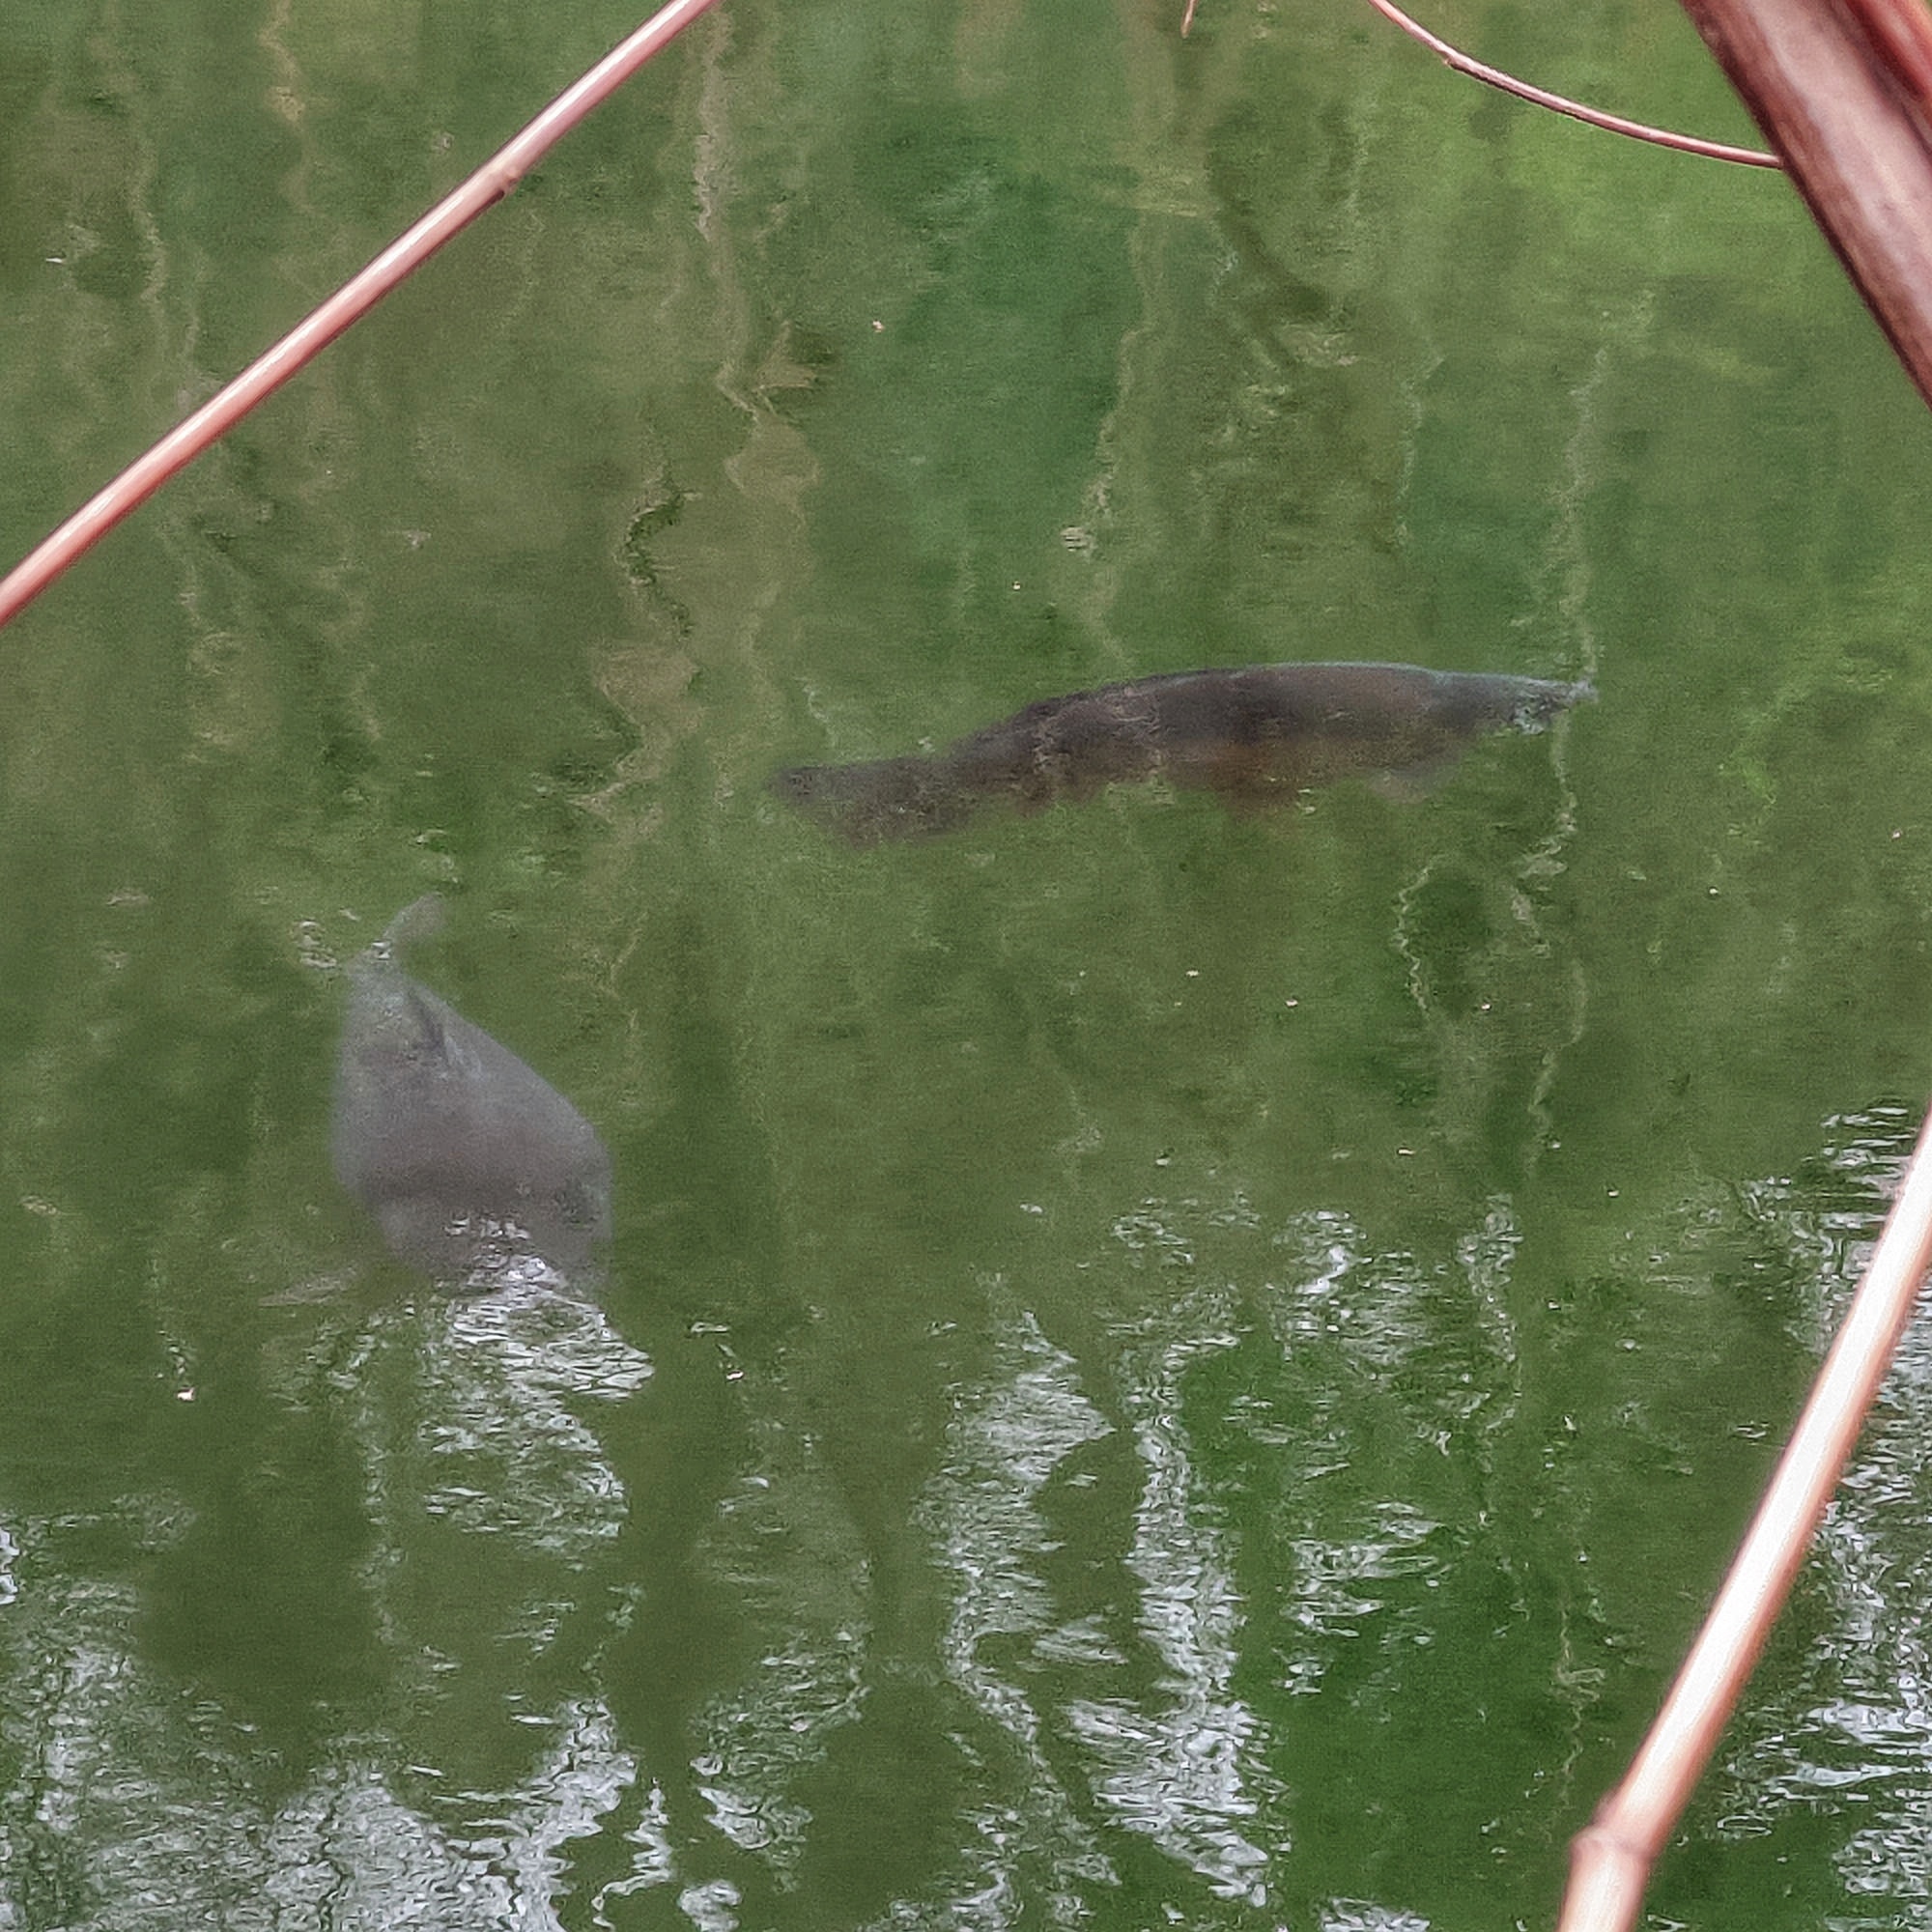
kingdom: Animalia
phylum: Chordata
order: Cypriniformes
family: Cyprinidae
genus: Cyprinus
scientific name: Cyprinus carpio
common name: Common carp
